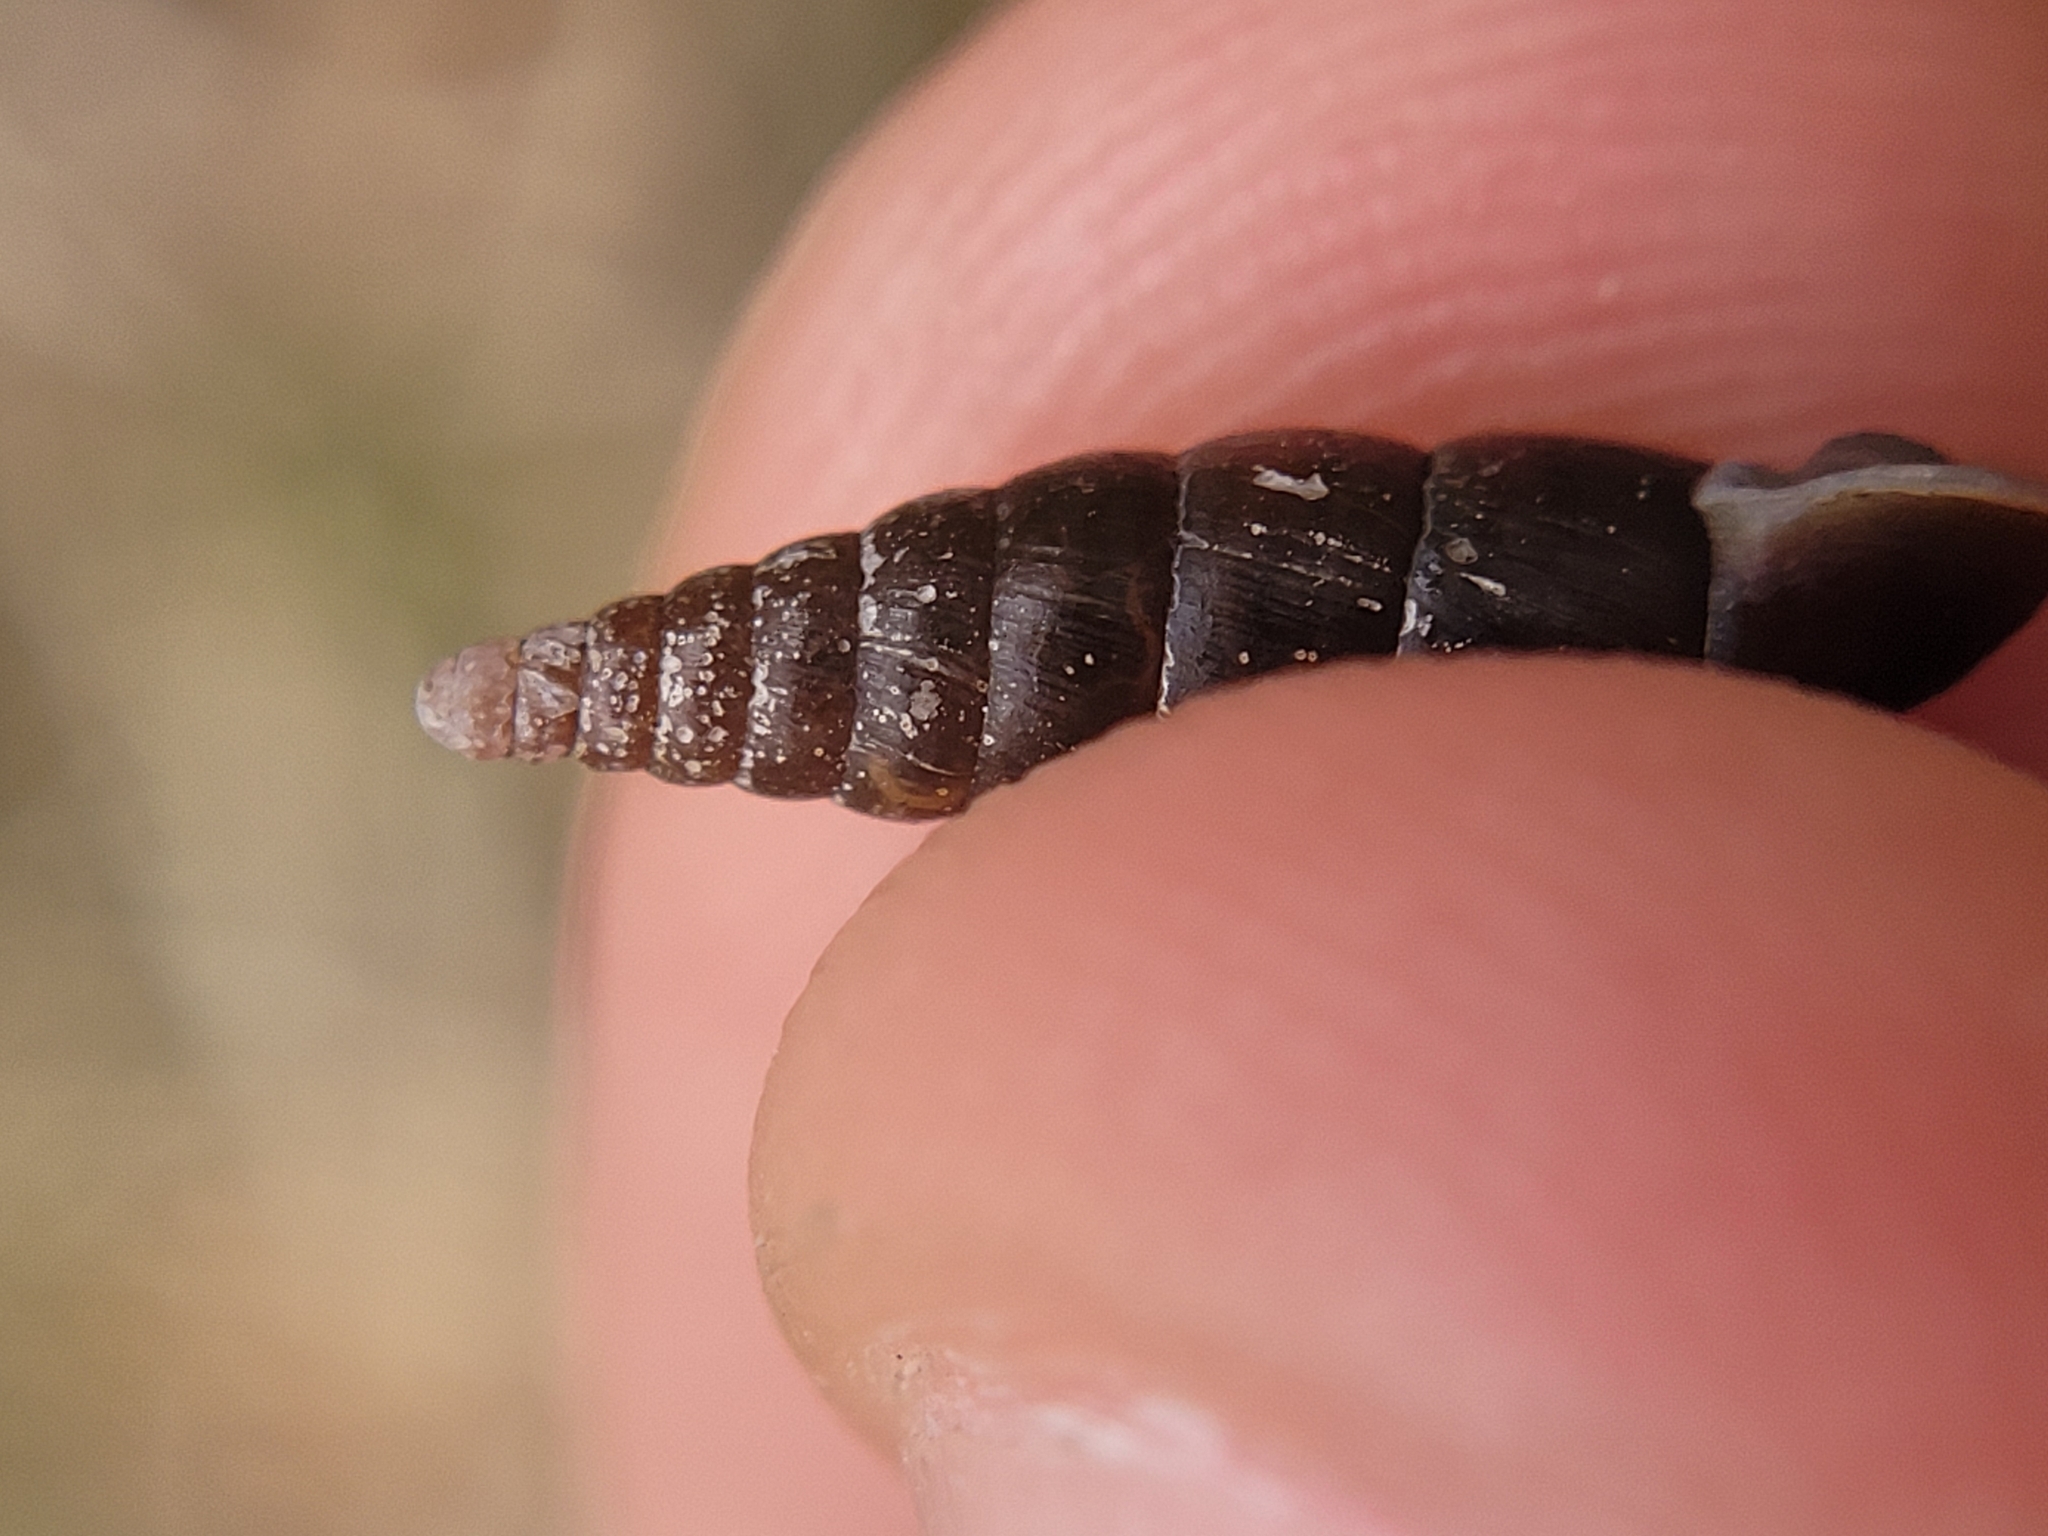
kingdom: Animalia
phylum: Mollusca
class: Gastropoda
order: Stylommatophora
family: Clausiliidae
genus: Cochlodina
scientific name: Cochlodina laminata
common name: Plaited door snail
